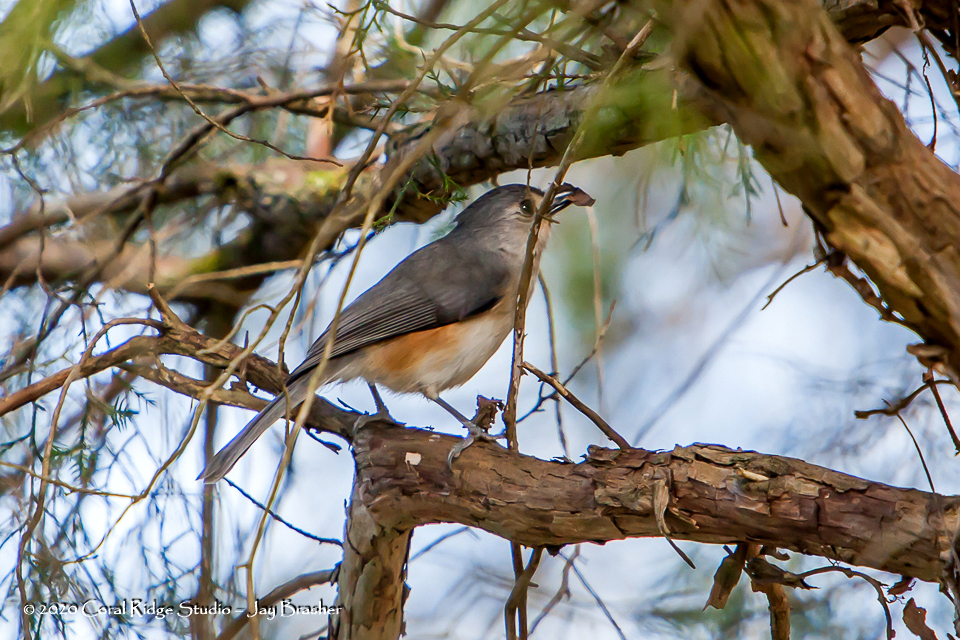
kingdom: Animalia
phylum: Chordata
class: Aves
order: Passeriformes
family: Paridae
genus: Baeolophus
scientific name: Baeolophus bicolor
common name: Tufted titmouse
